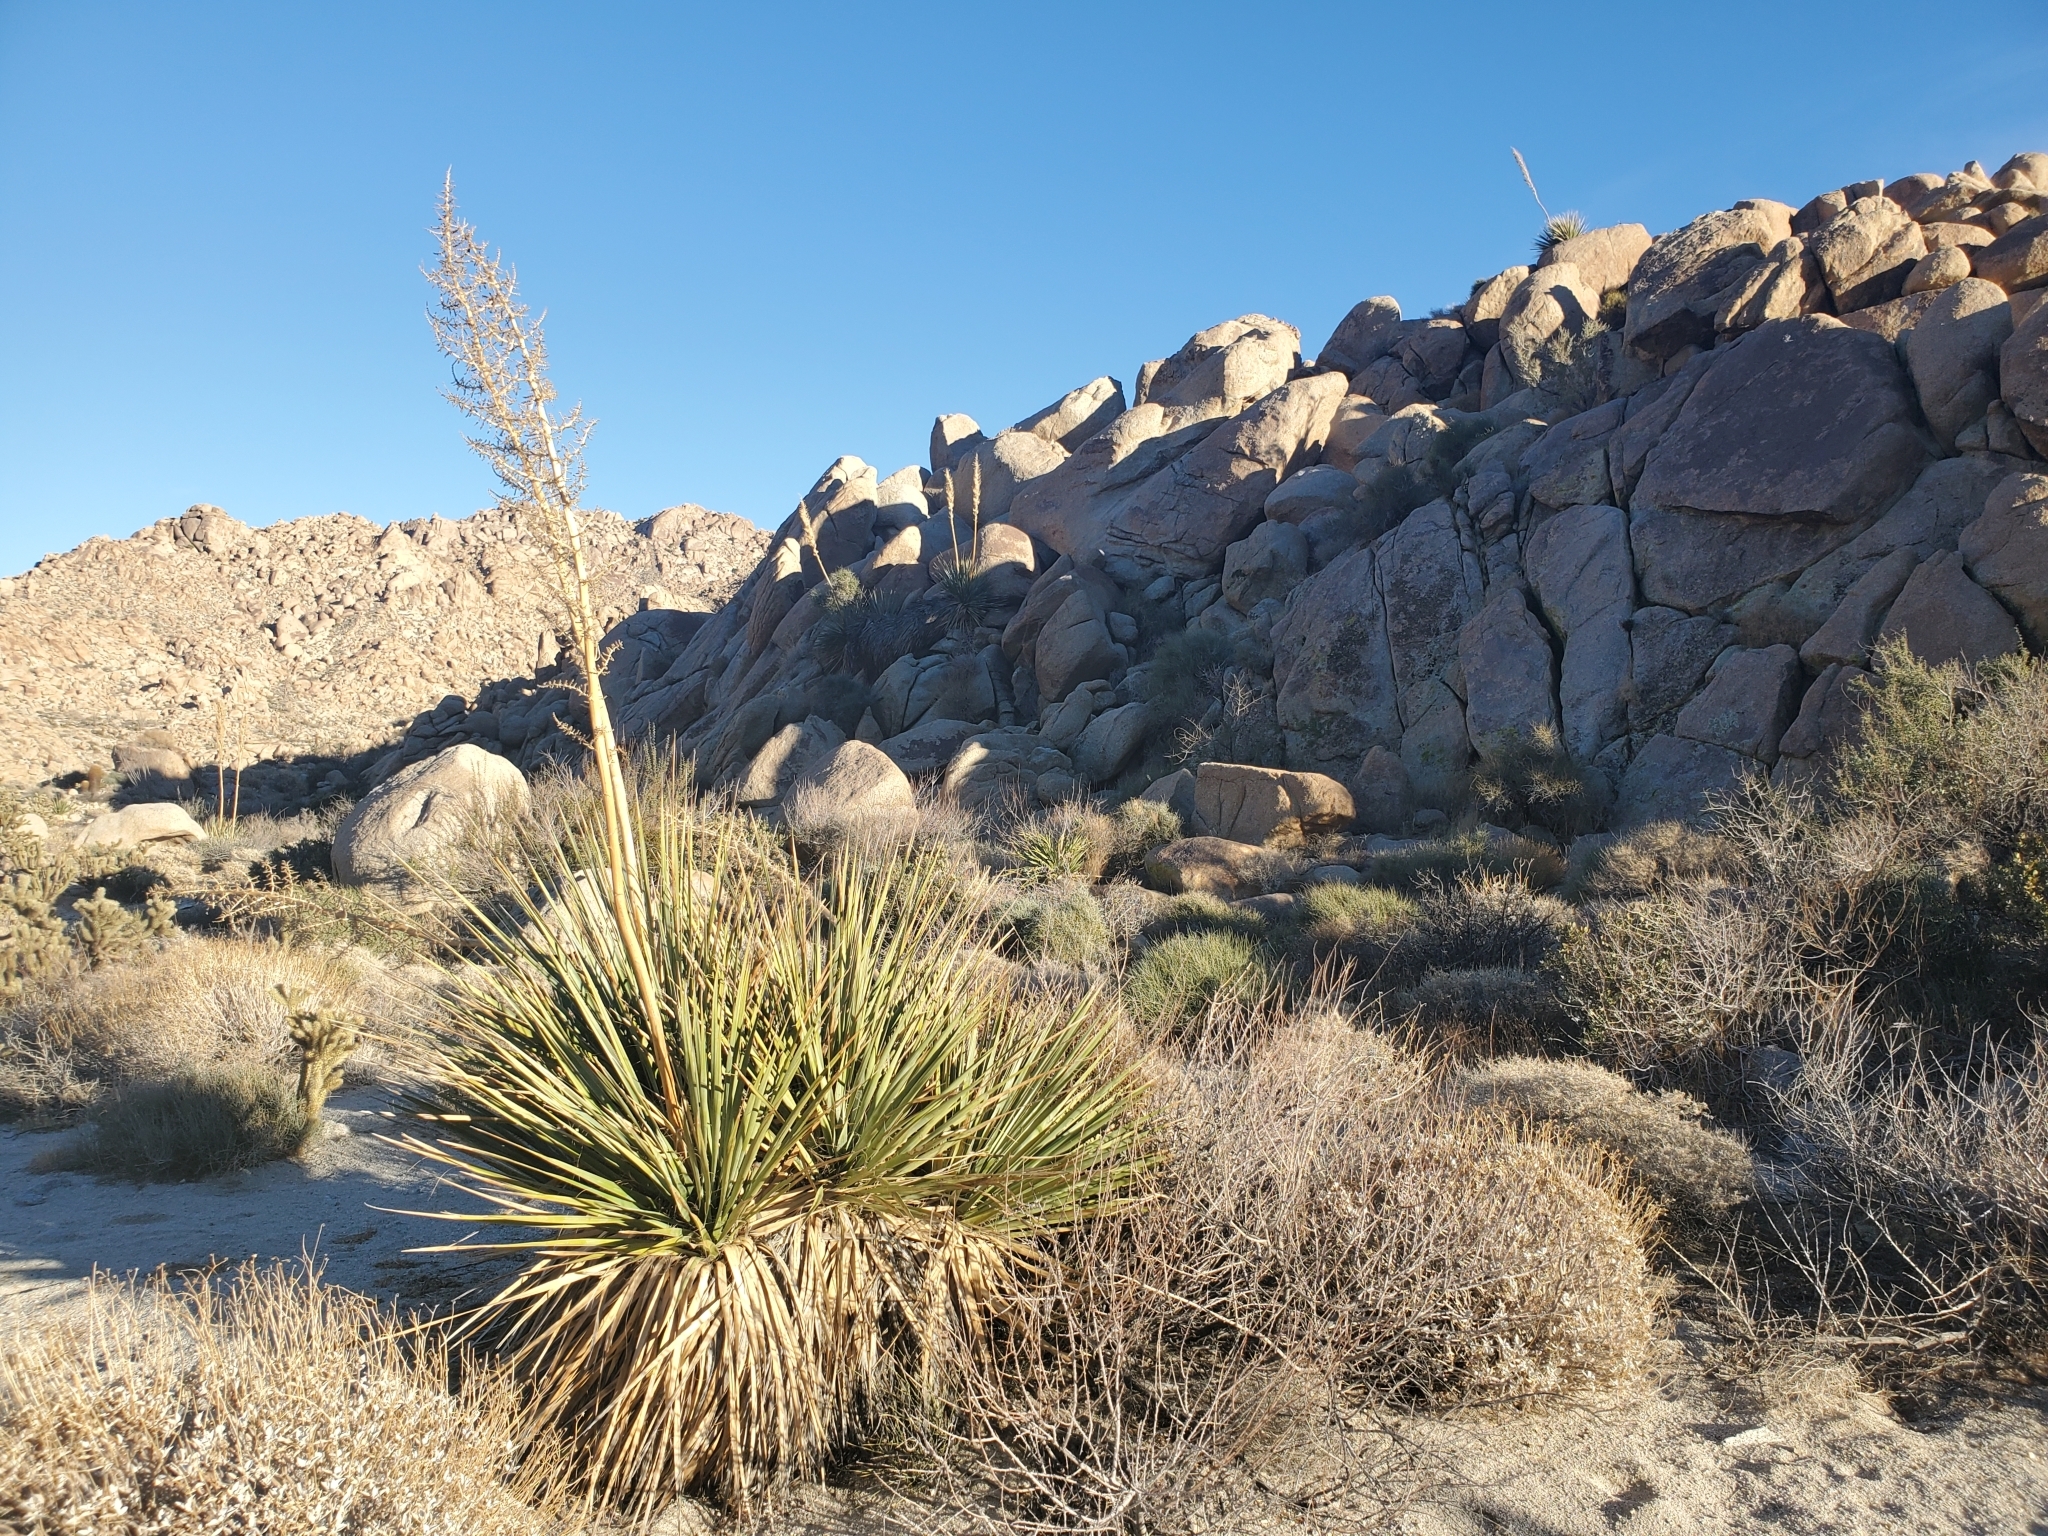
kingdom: Plantae
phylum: Tracheophyta
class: Liliopsida
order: Asparagales
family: Asparagaceae
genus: Nolina
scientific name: Nolina bigelovii
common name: Bigelow bear-grass
